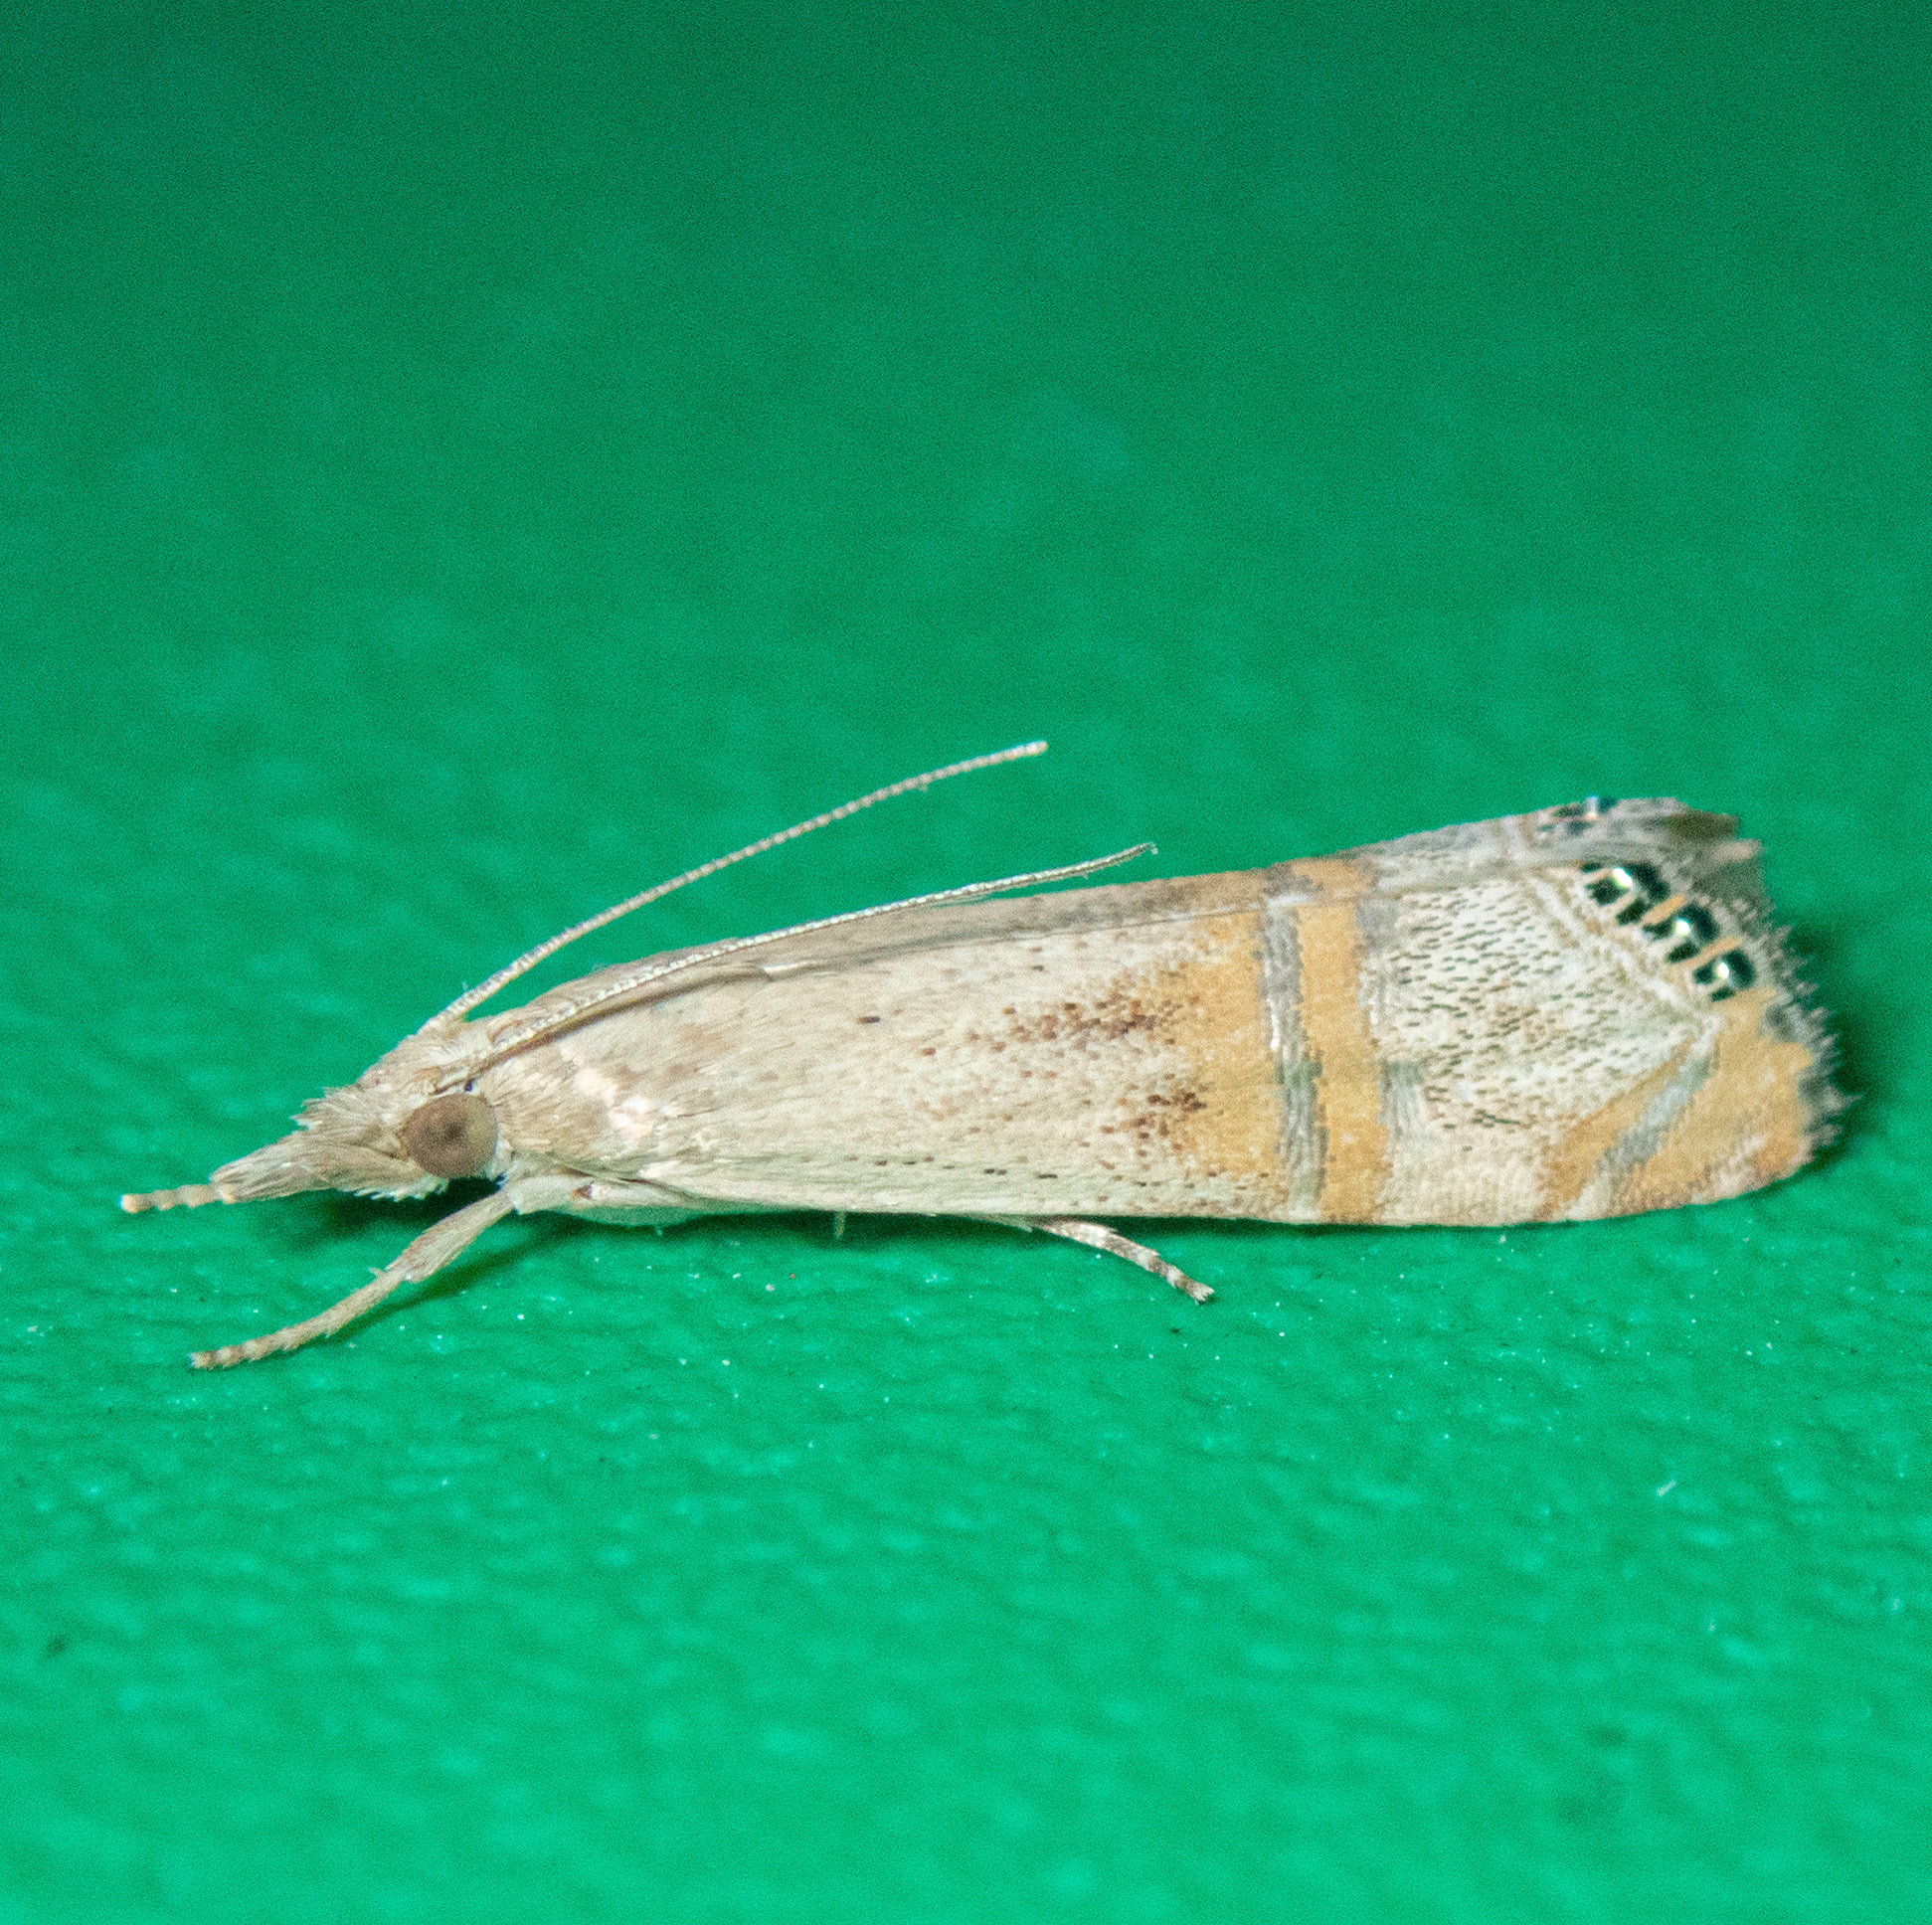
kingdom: Animalia
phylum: Arthropoda
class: Insecta
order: Lepidoptera
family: Crambidae
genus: Euchromius
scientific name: Euchromius ocellea
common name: Necklace veneer moth
